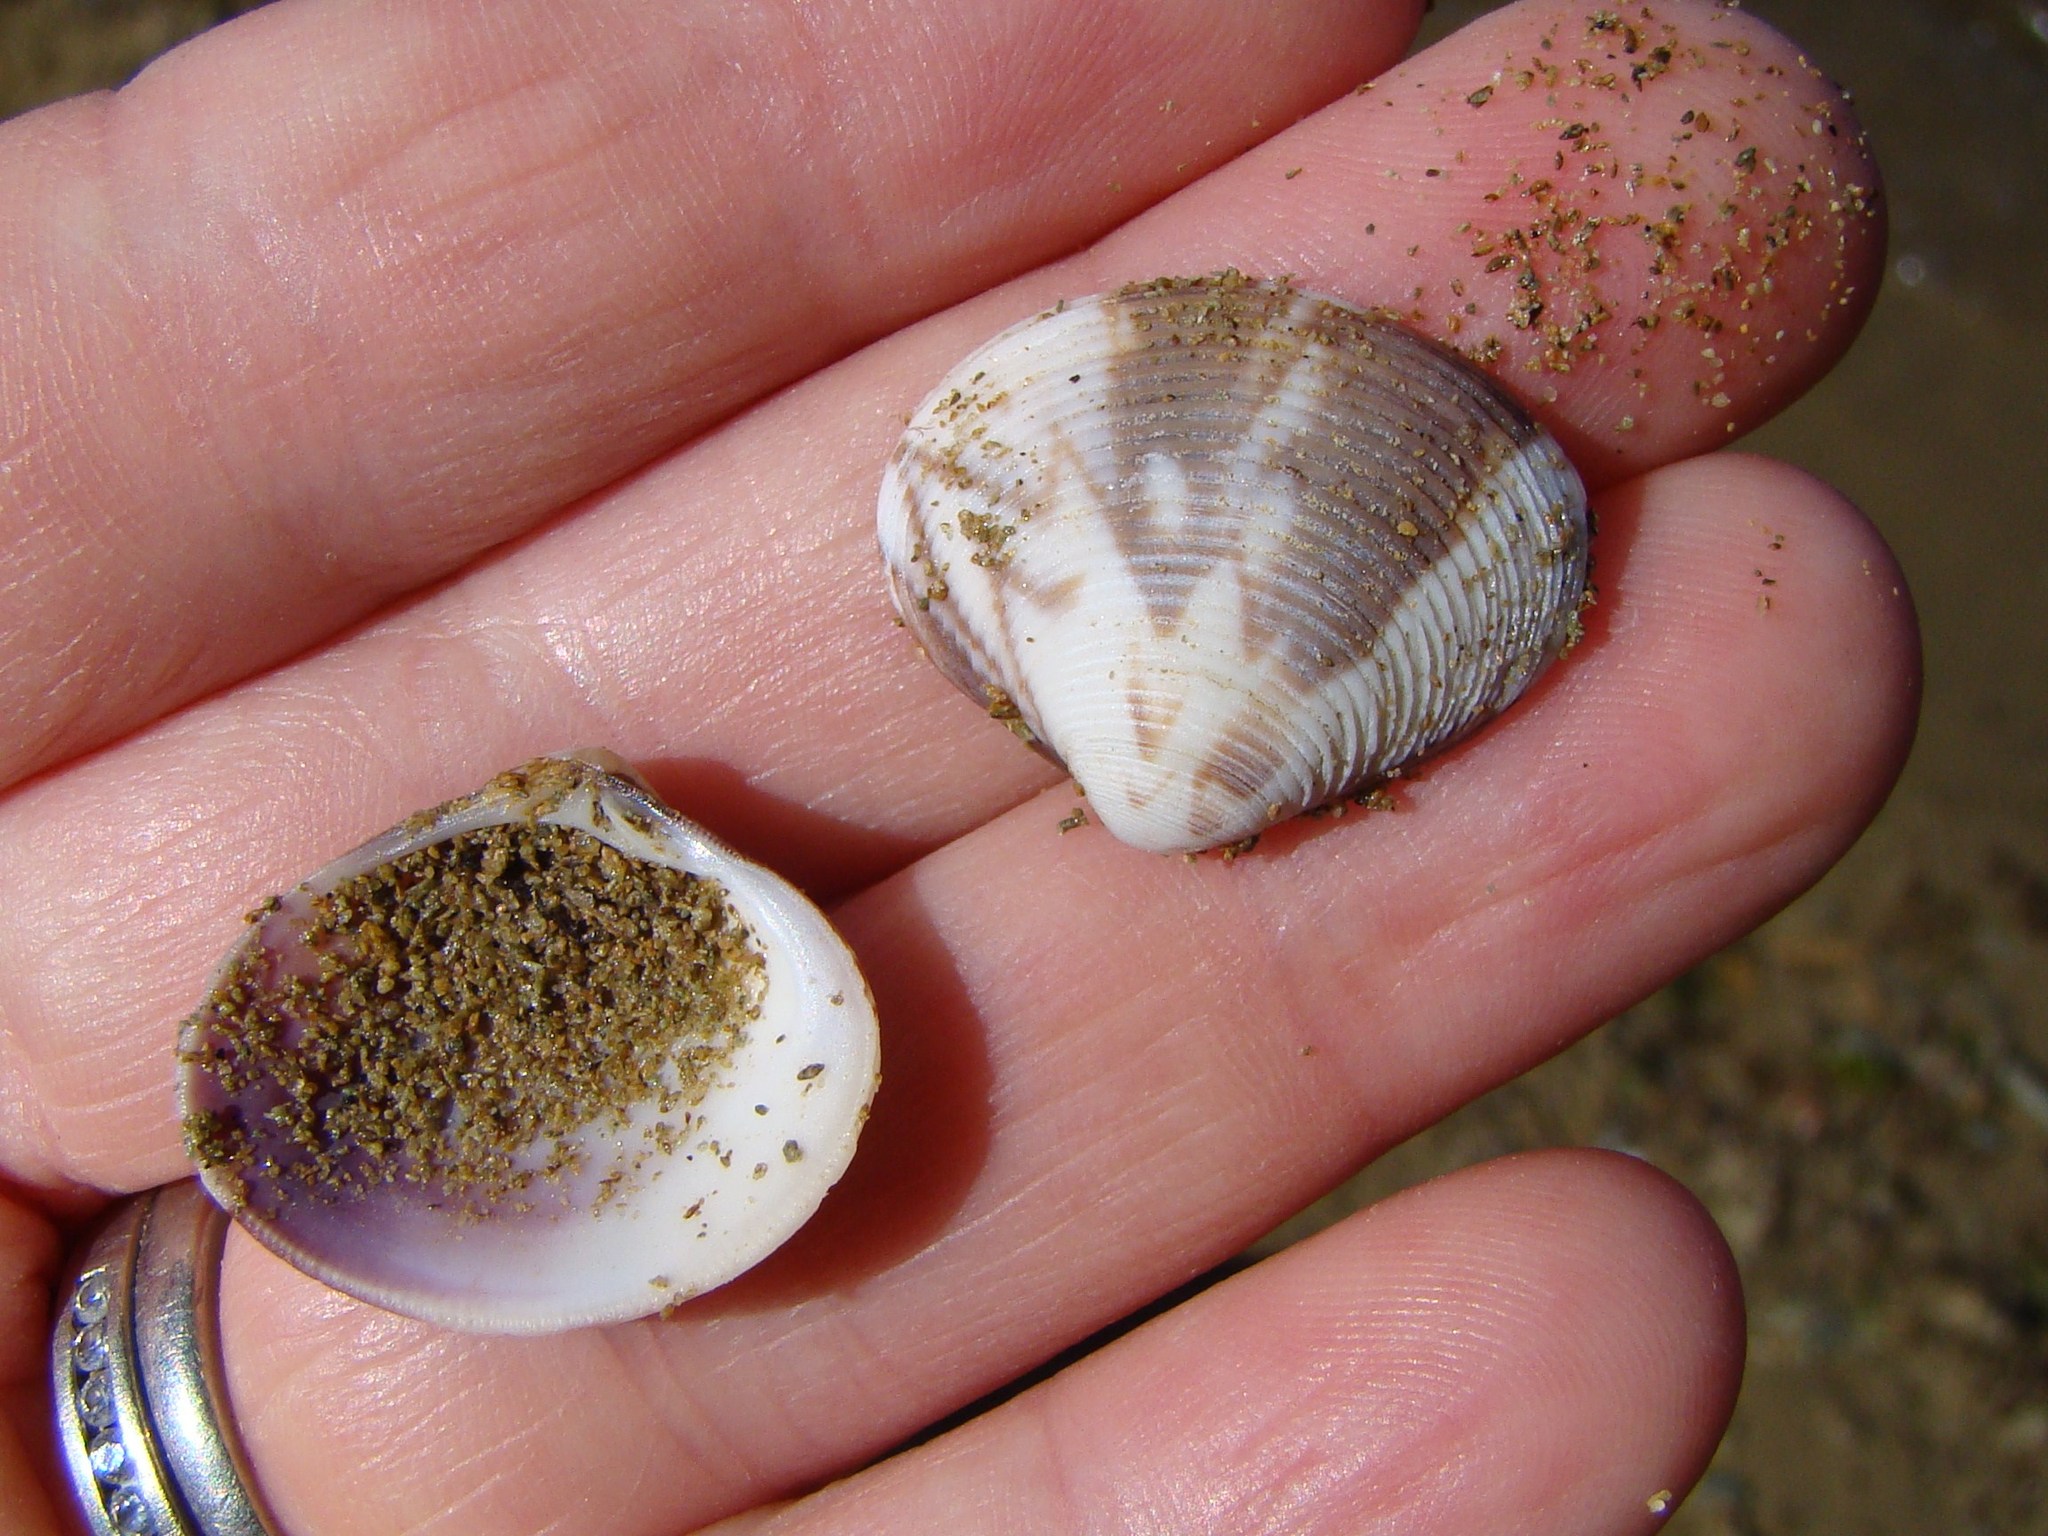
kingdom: Animalia
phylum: Mollusca
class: Bivalvia
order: Venerida
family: Veneridae
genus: Tawera
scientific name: Tawera spissa
